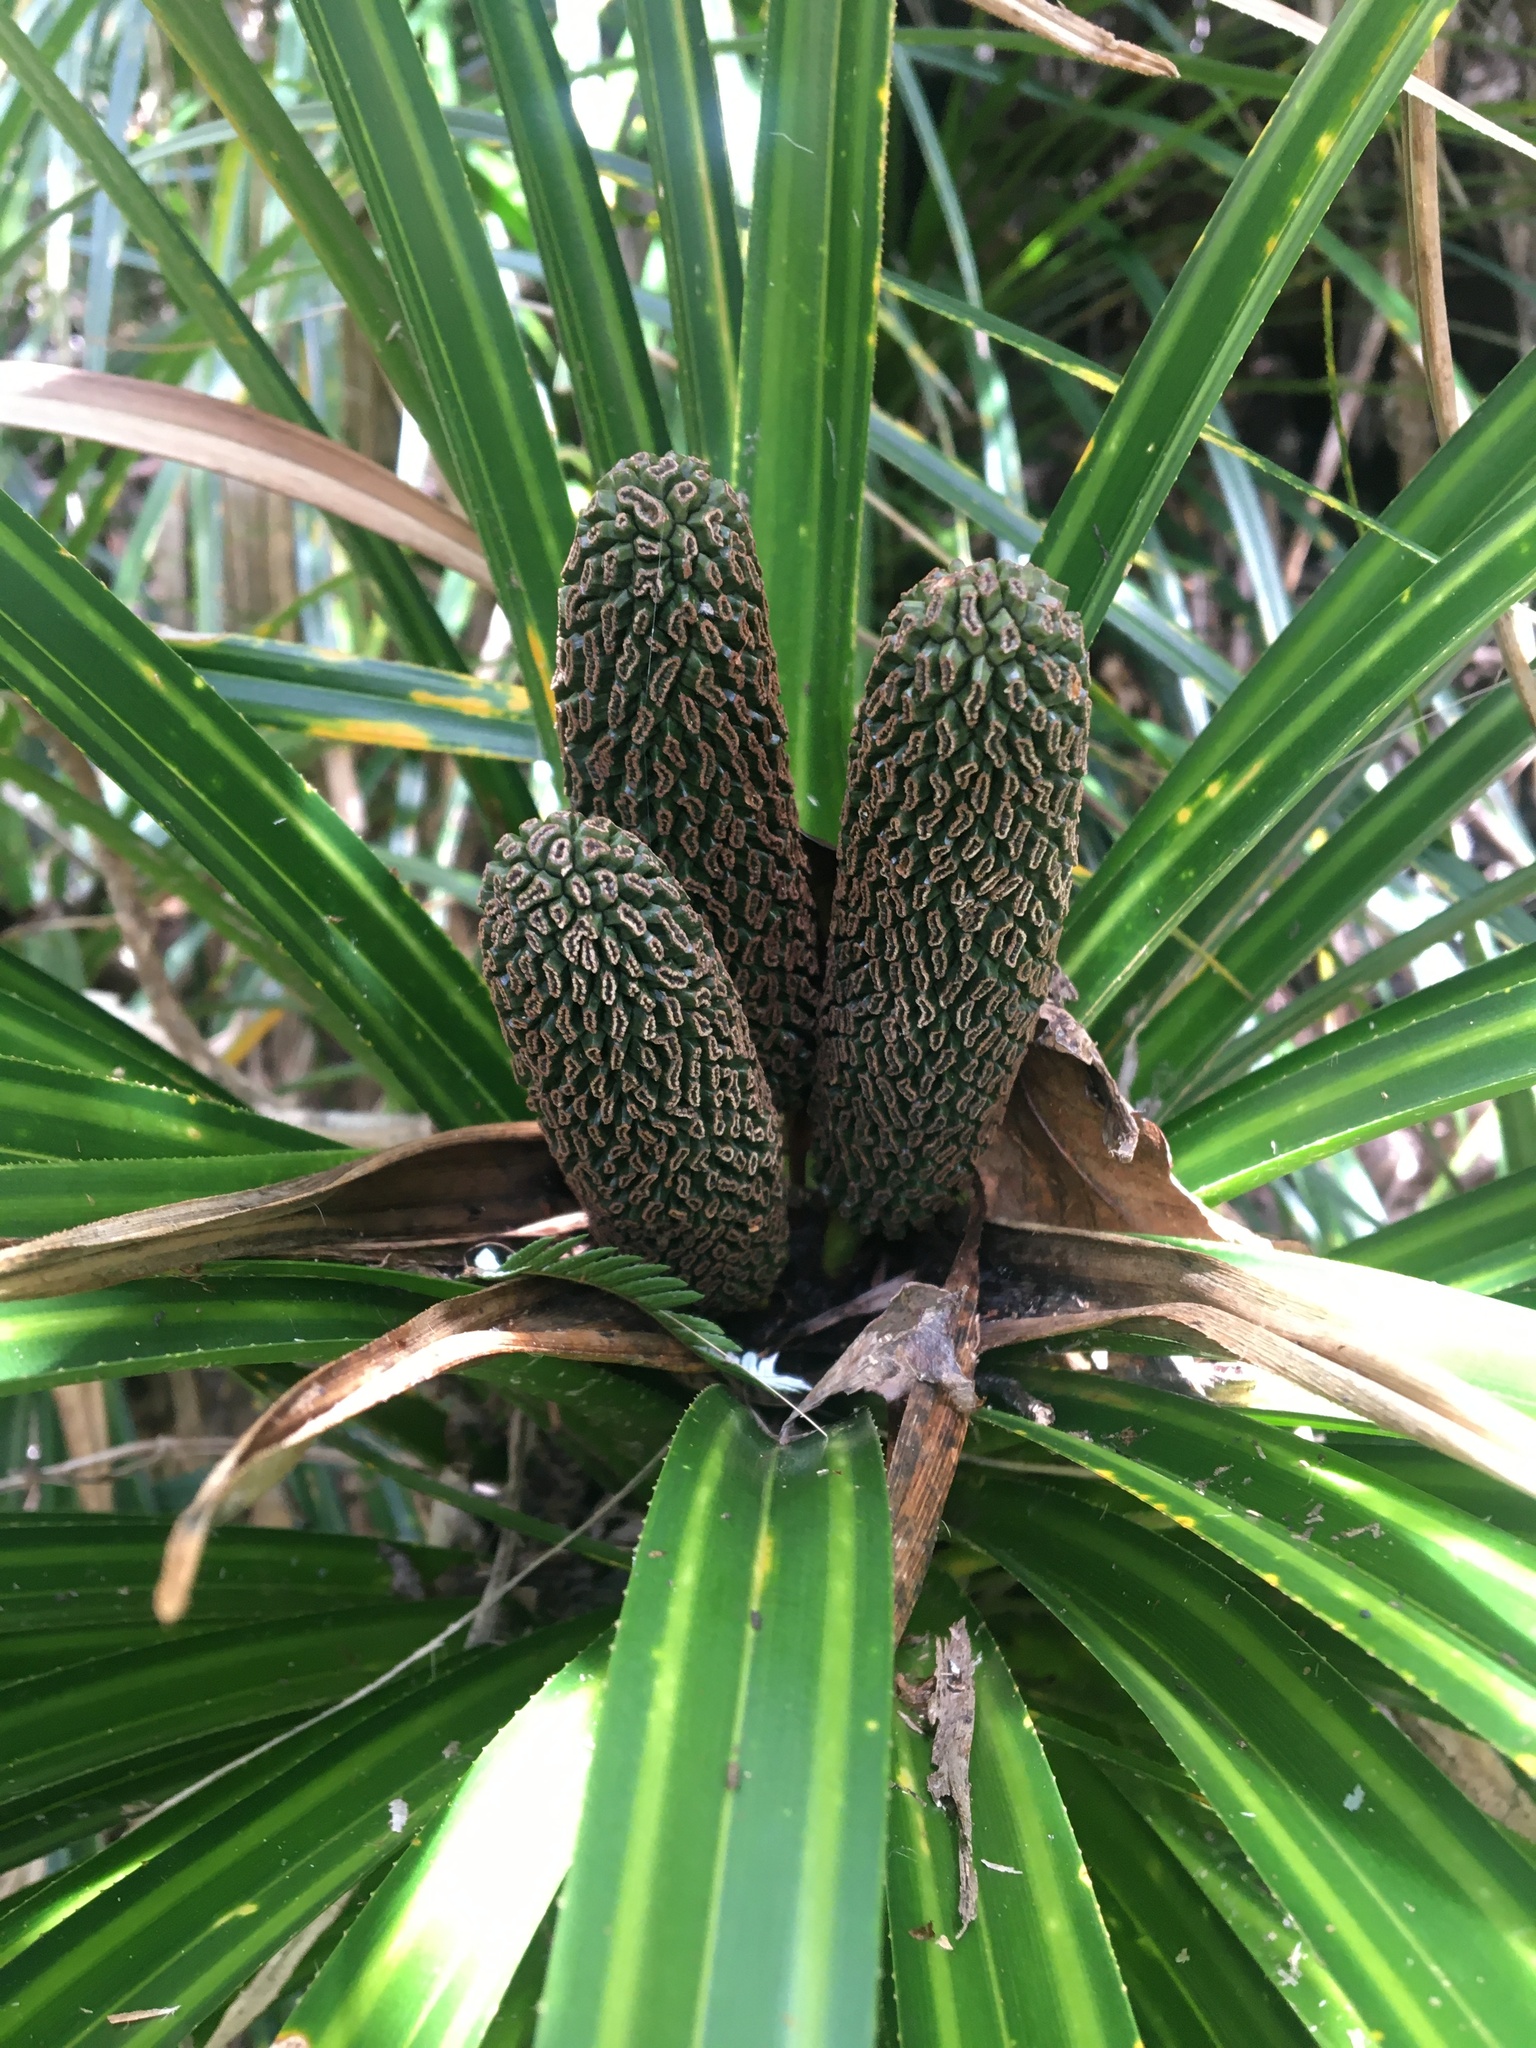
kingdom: Plantae
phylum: Tracheophyta
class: Liliopsida
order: Pandanales
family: Pandanaceae
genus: Freycinetia
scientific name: Freycinetia banksii
